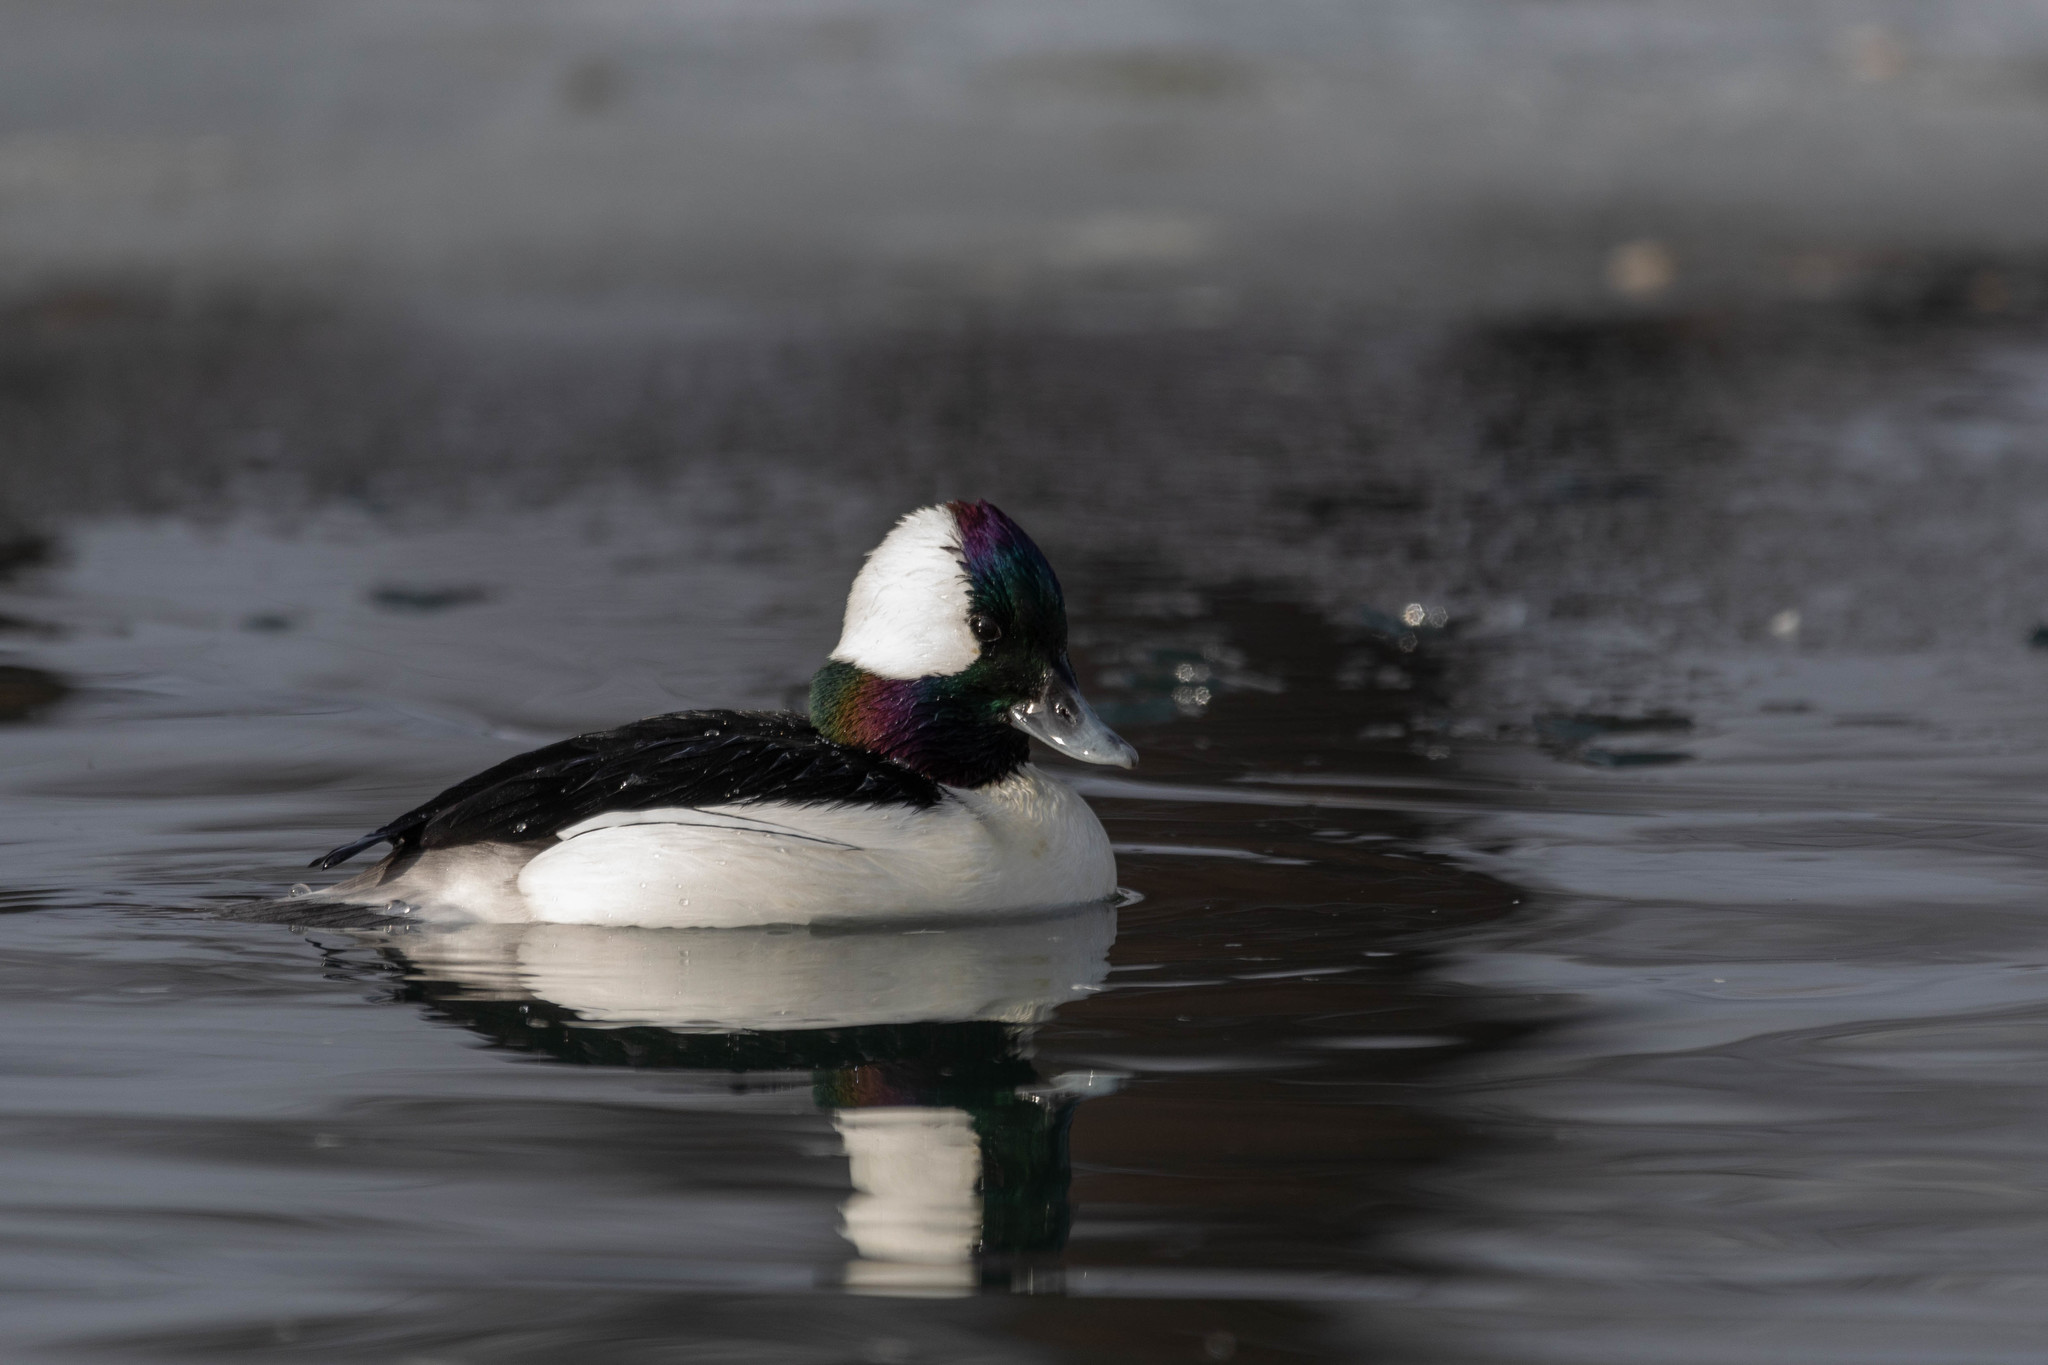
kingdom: Animalia
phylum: Chordata
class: Aves
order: Anseriformes
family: Anatidae
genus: Bucephala
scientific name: Bucephala albeola
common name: Bufflehead
